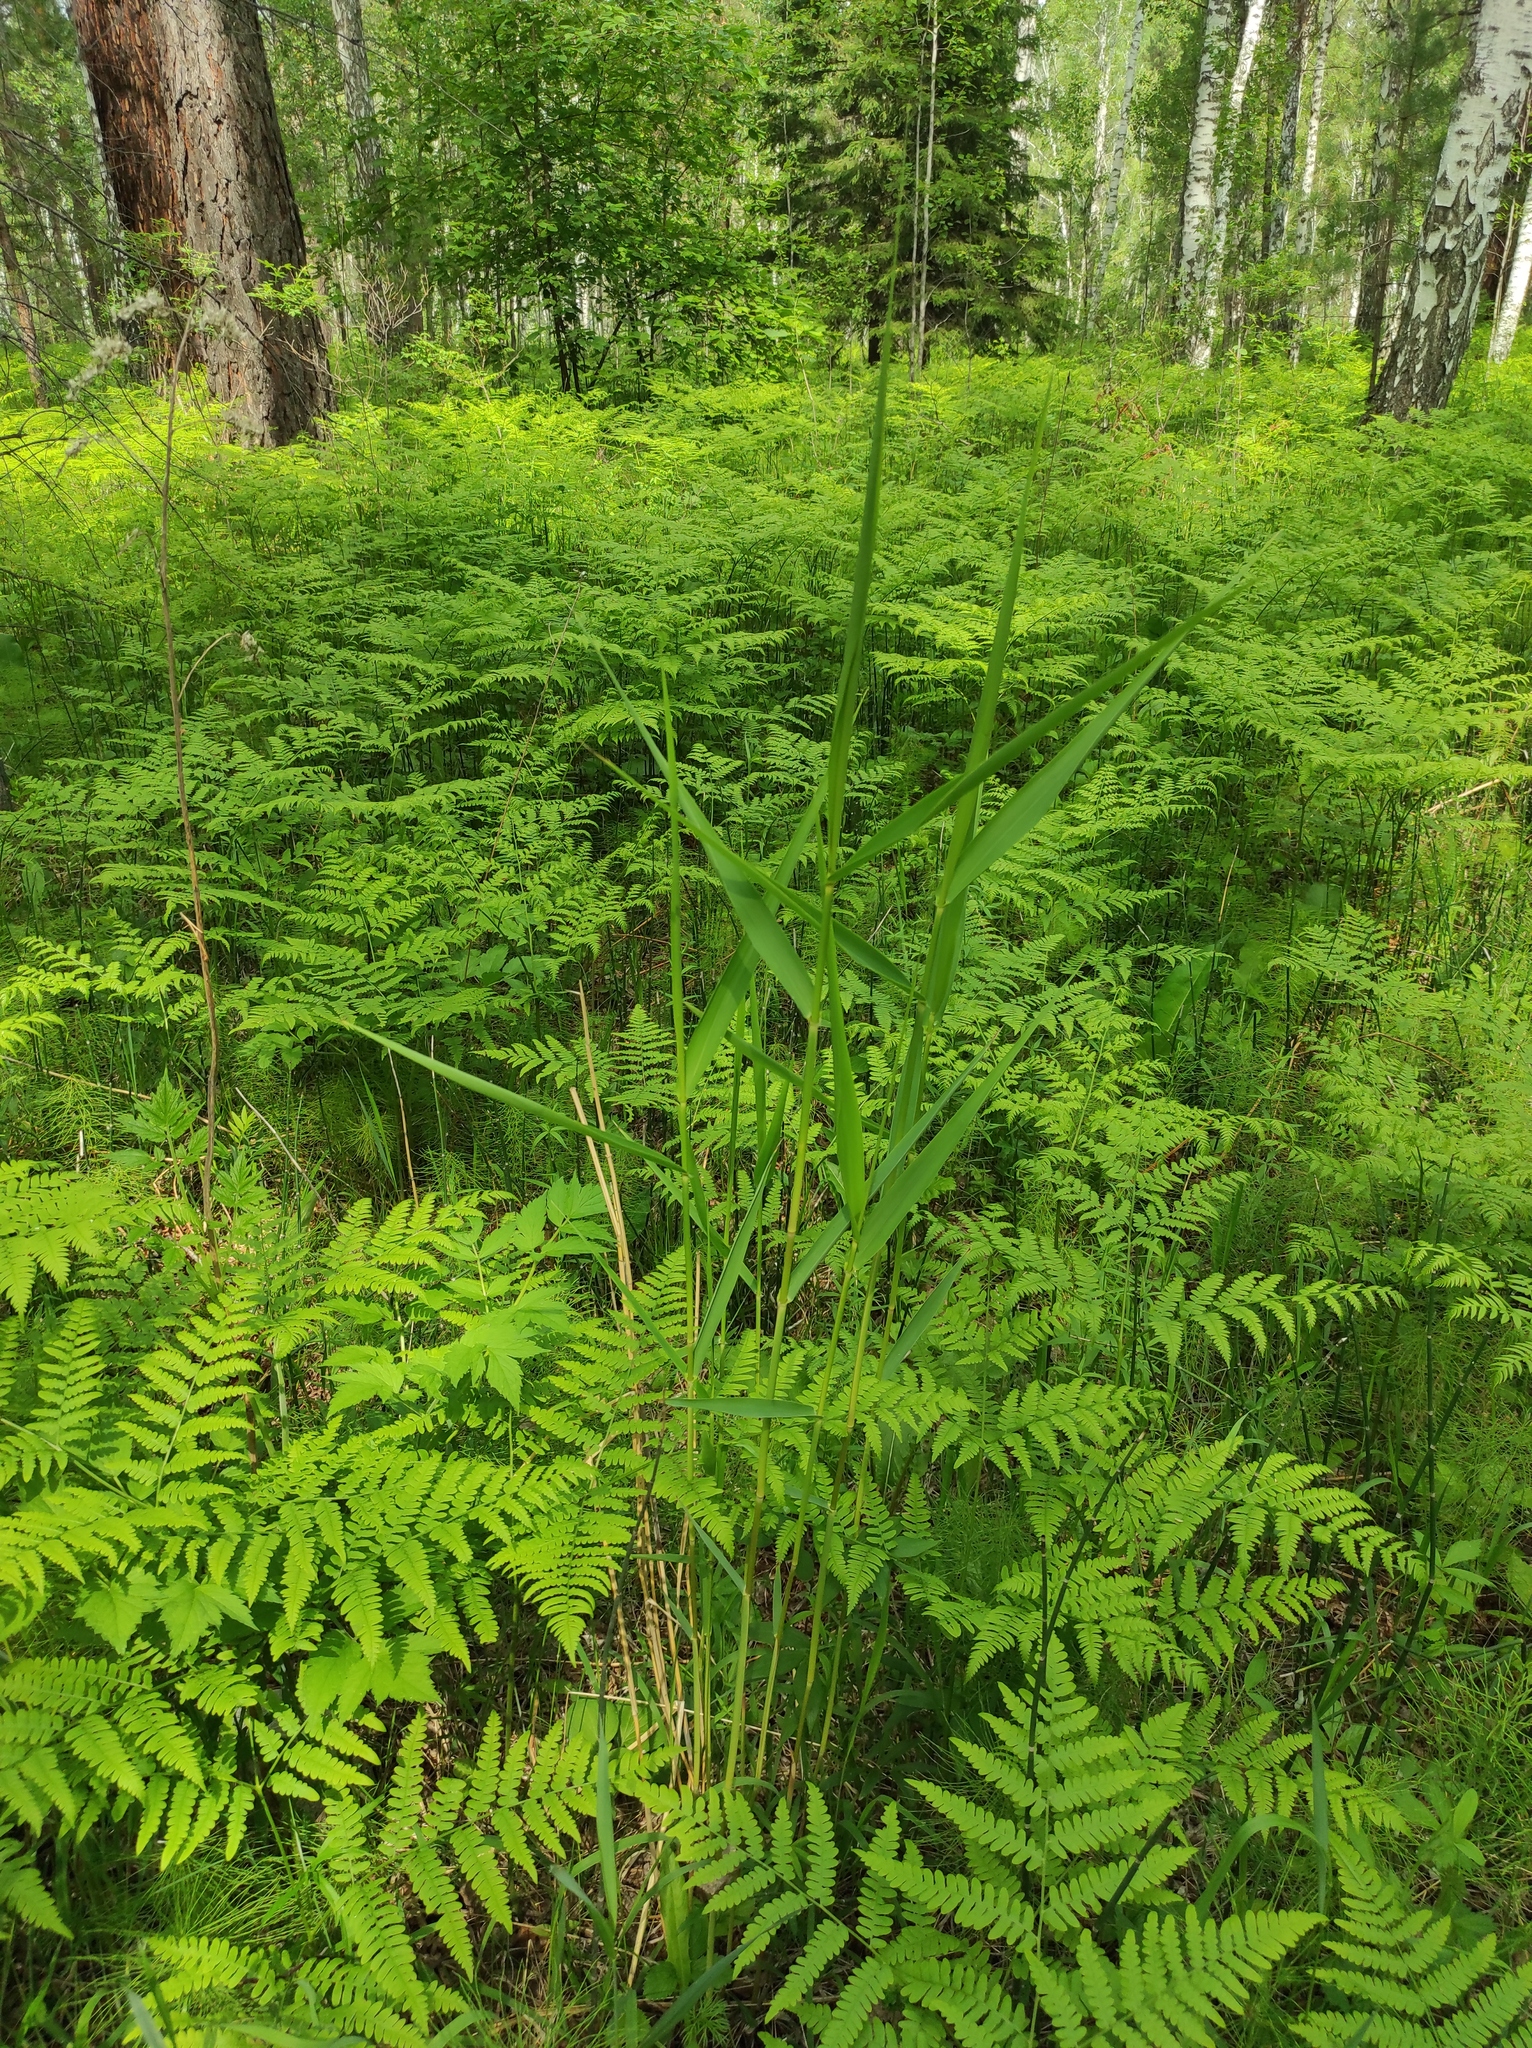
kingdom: Plantae
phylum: Tracheophyta
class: Polypodiopsida
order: Polypodiales
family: Dennstaedtiaceae
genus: Pteridium
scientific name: Pteridium aquilinum
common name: Bracken
